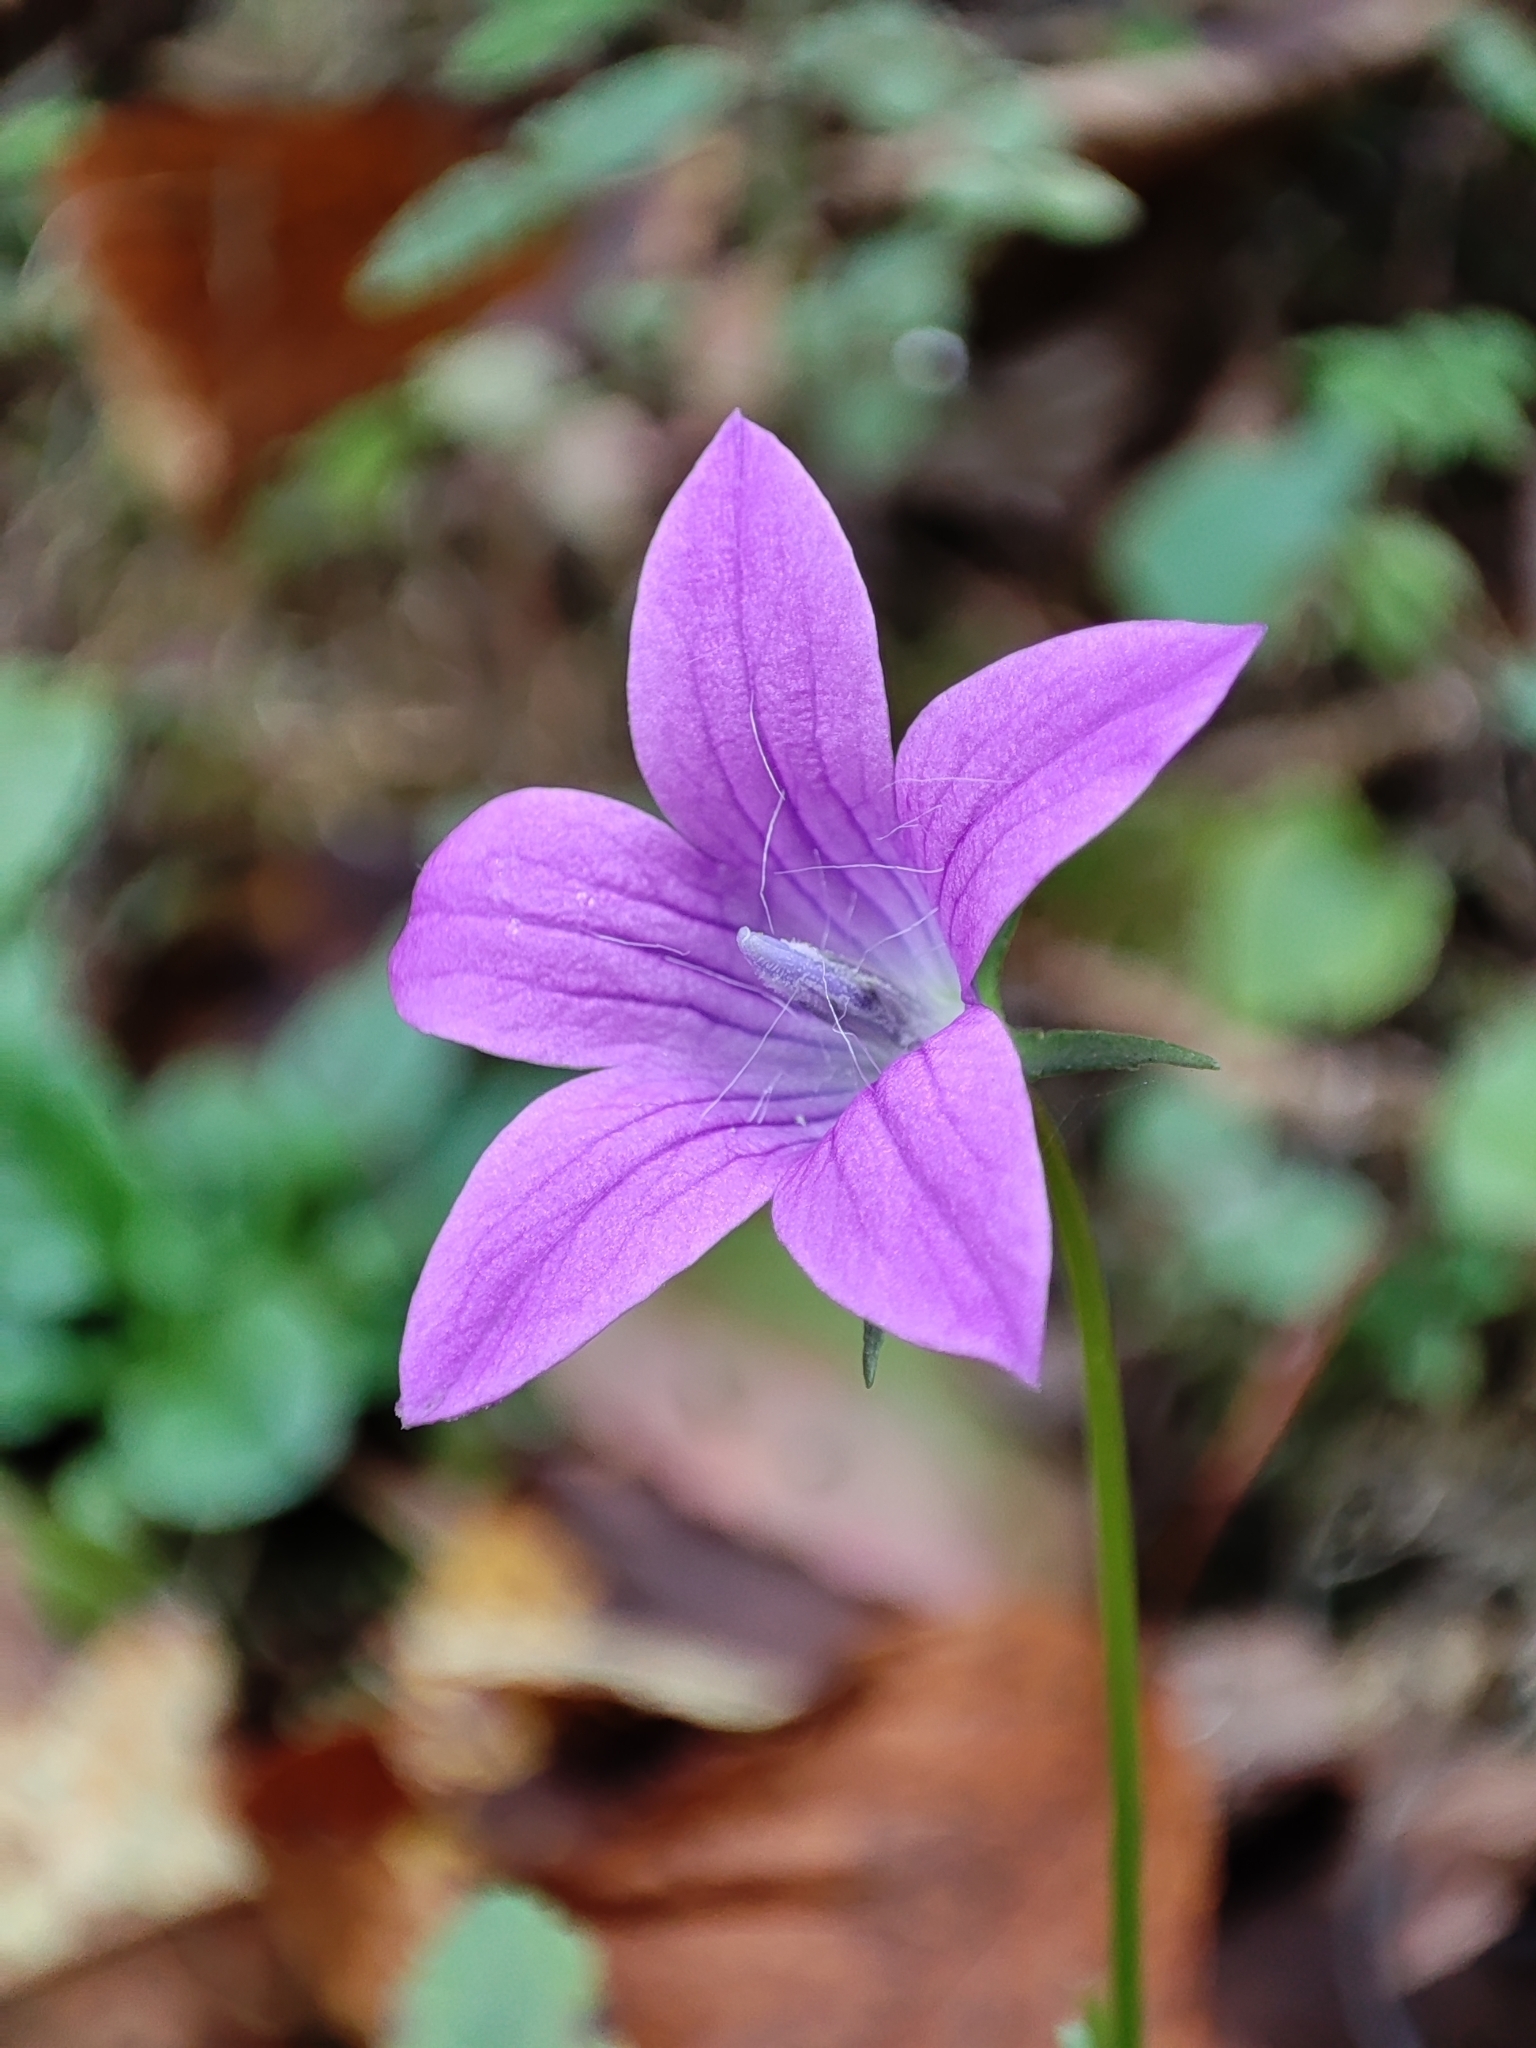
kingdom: Plantae
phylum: Tracheophyta
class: Magnoliopsida
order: Asterales
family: Campanulaceae
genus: Campanula
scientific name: Campanula patula
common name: Spreading bellflower
